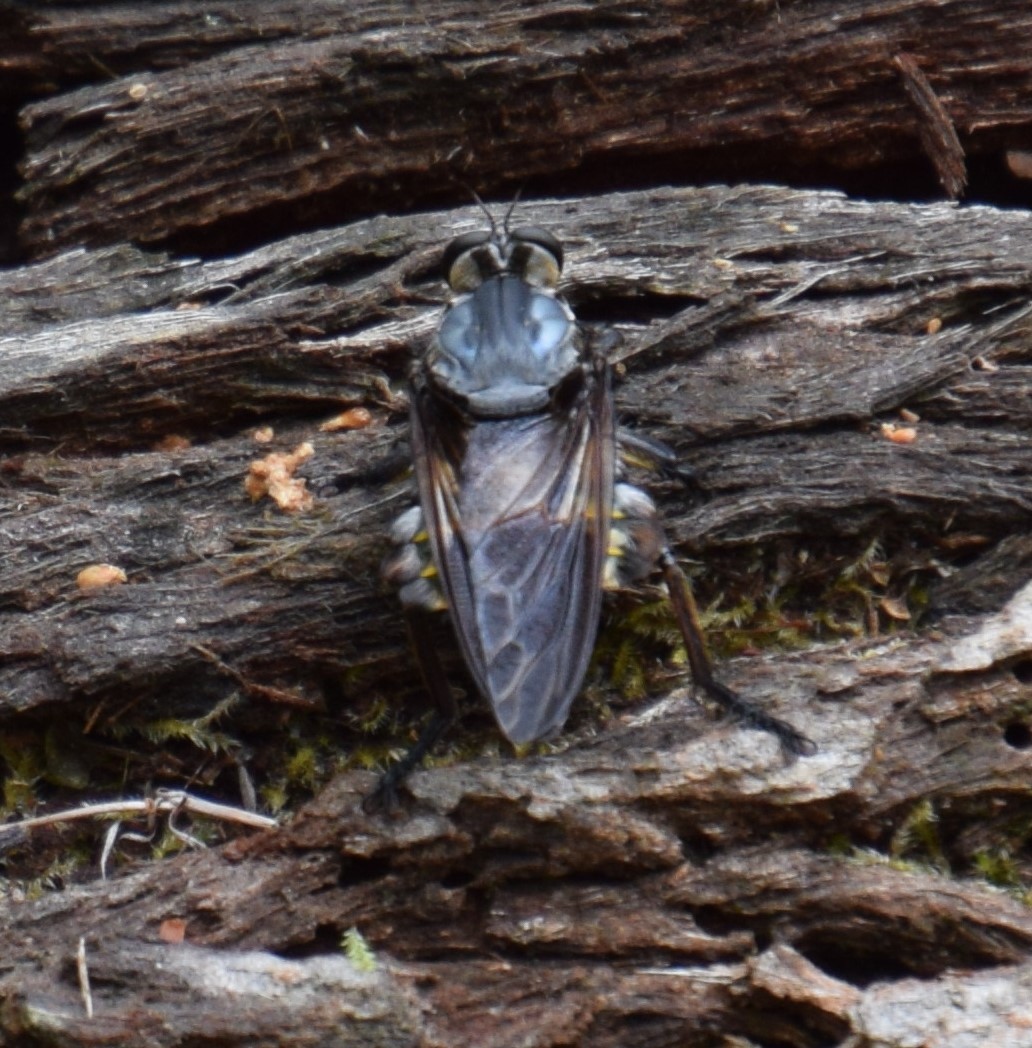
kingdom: Animalia
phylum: Arthropoda
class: Insecta
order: Diptera
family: Asilidae
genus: Blepharotes
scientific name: Blepharotes splendidissimus
